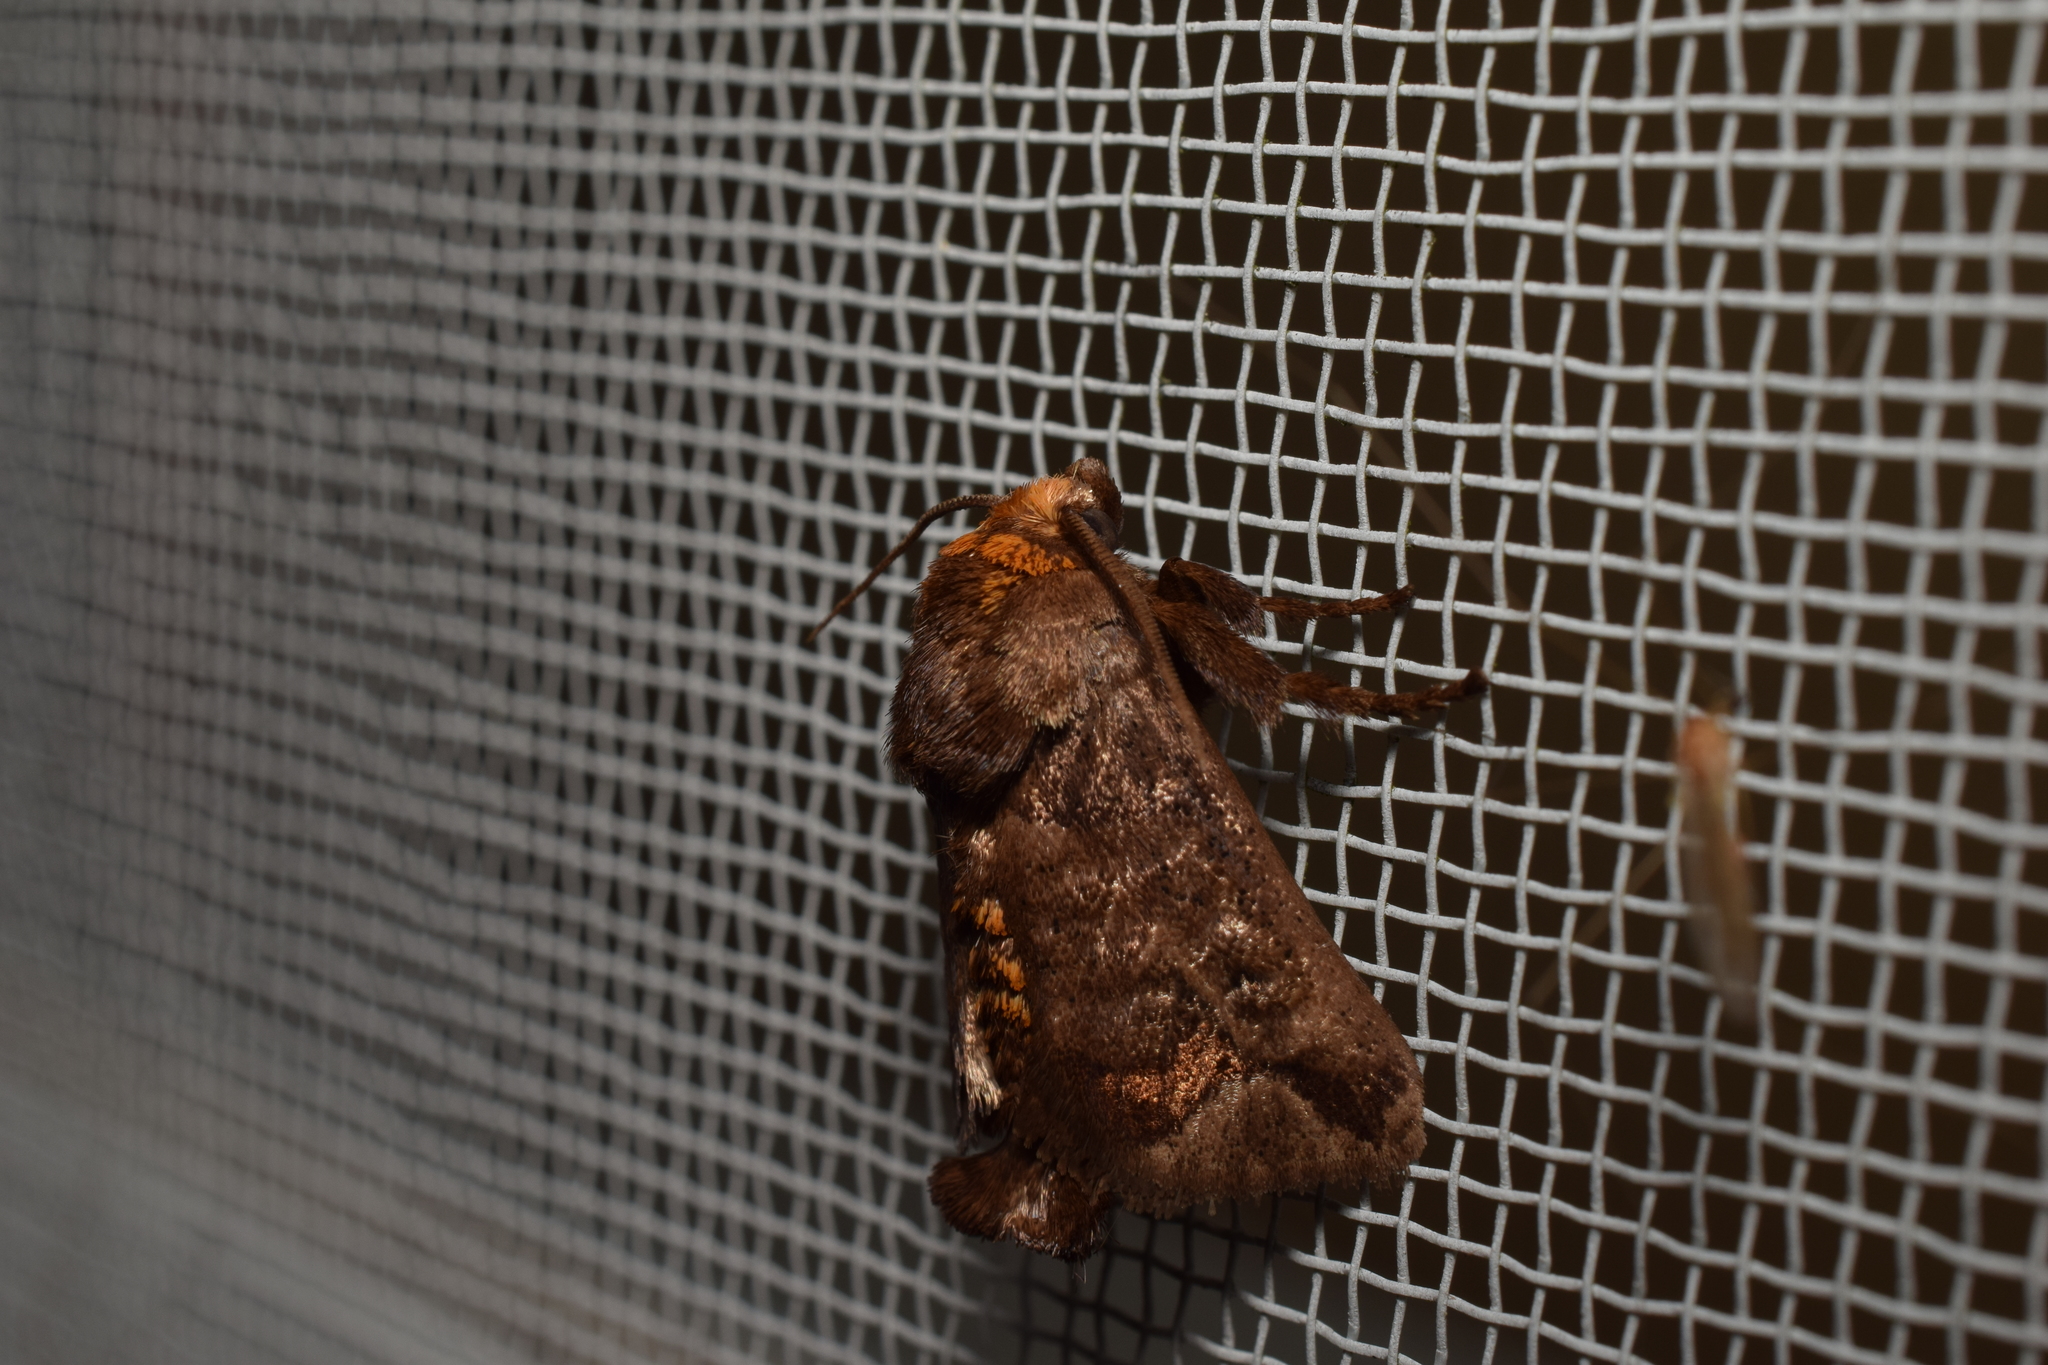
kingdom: Animalia
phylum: Arthropoda
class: Insecta
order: Lepidoptera
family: Limacodidae
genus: Phlossa
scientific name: Phlossa conjuncta
